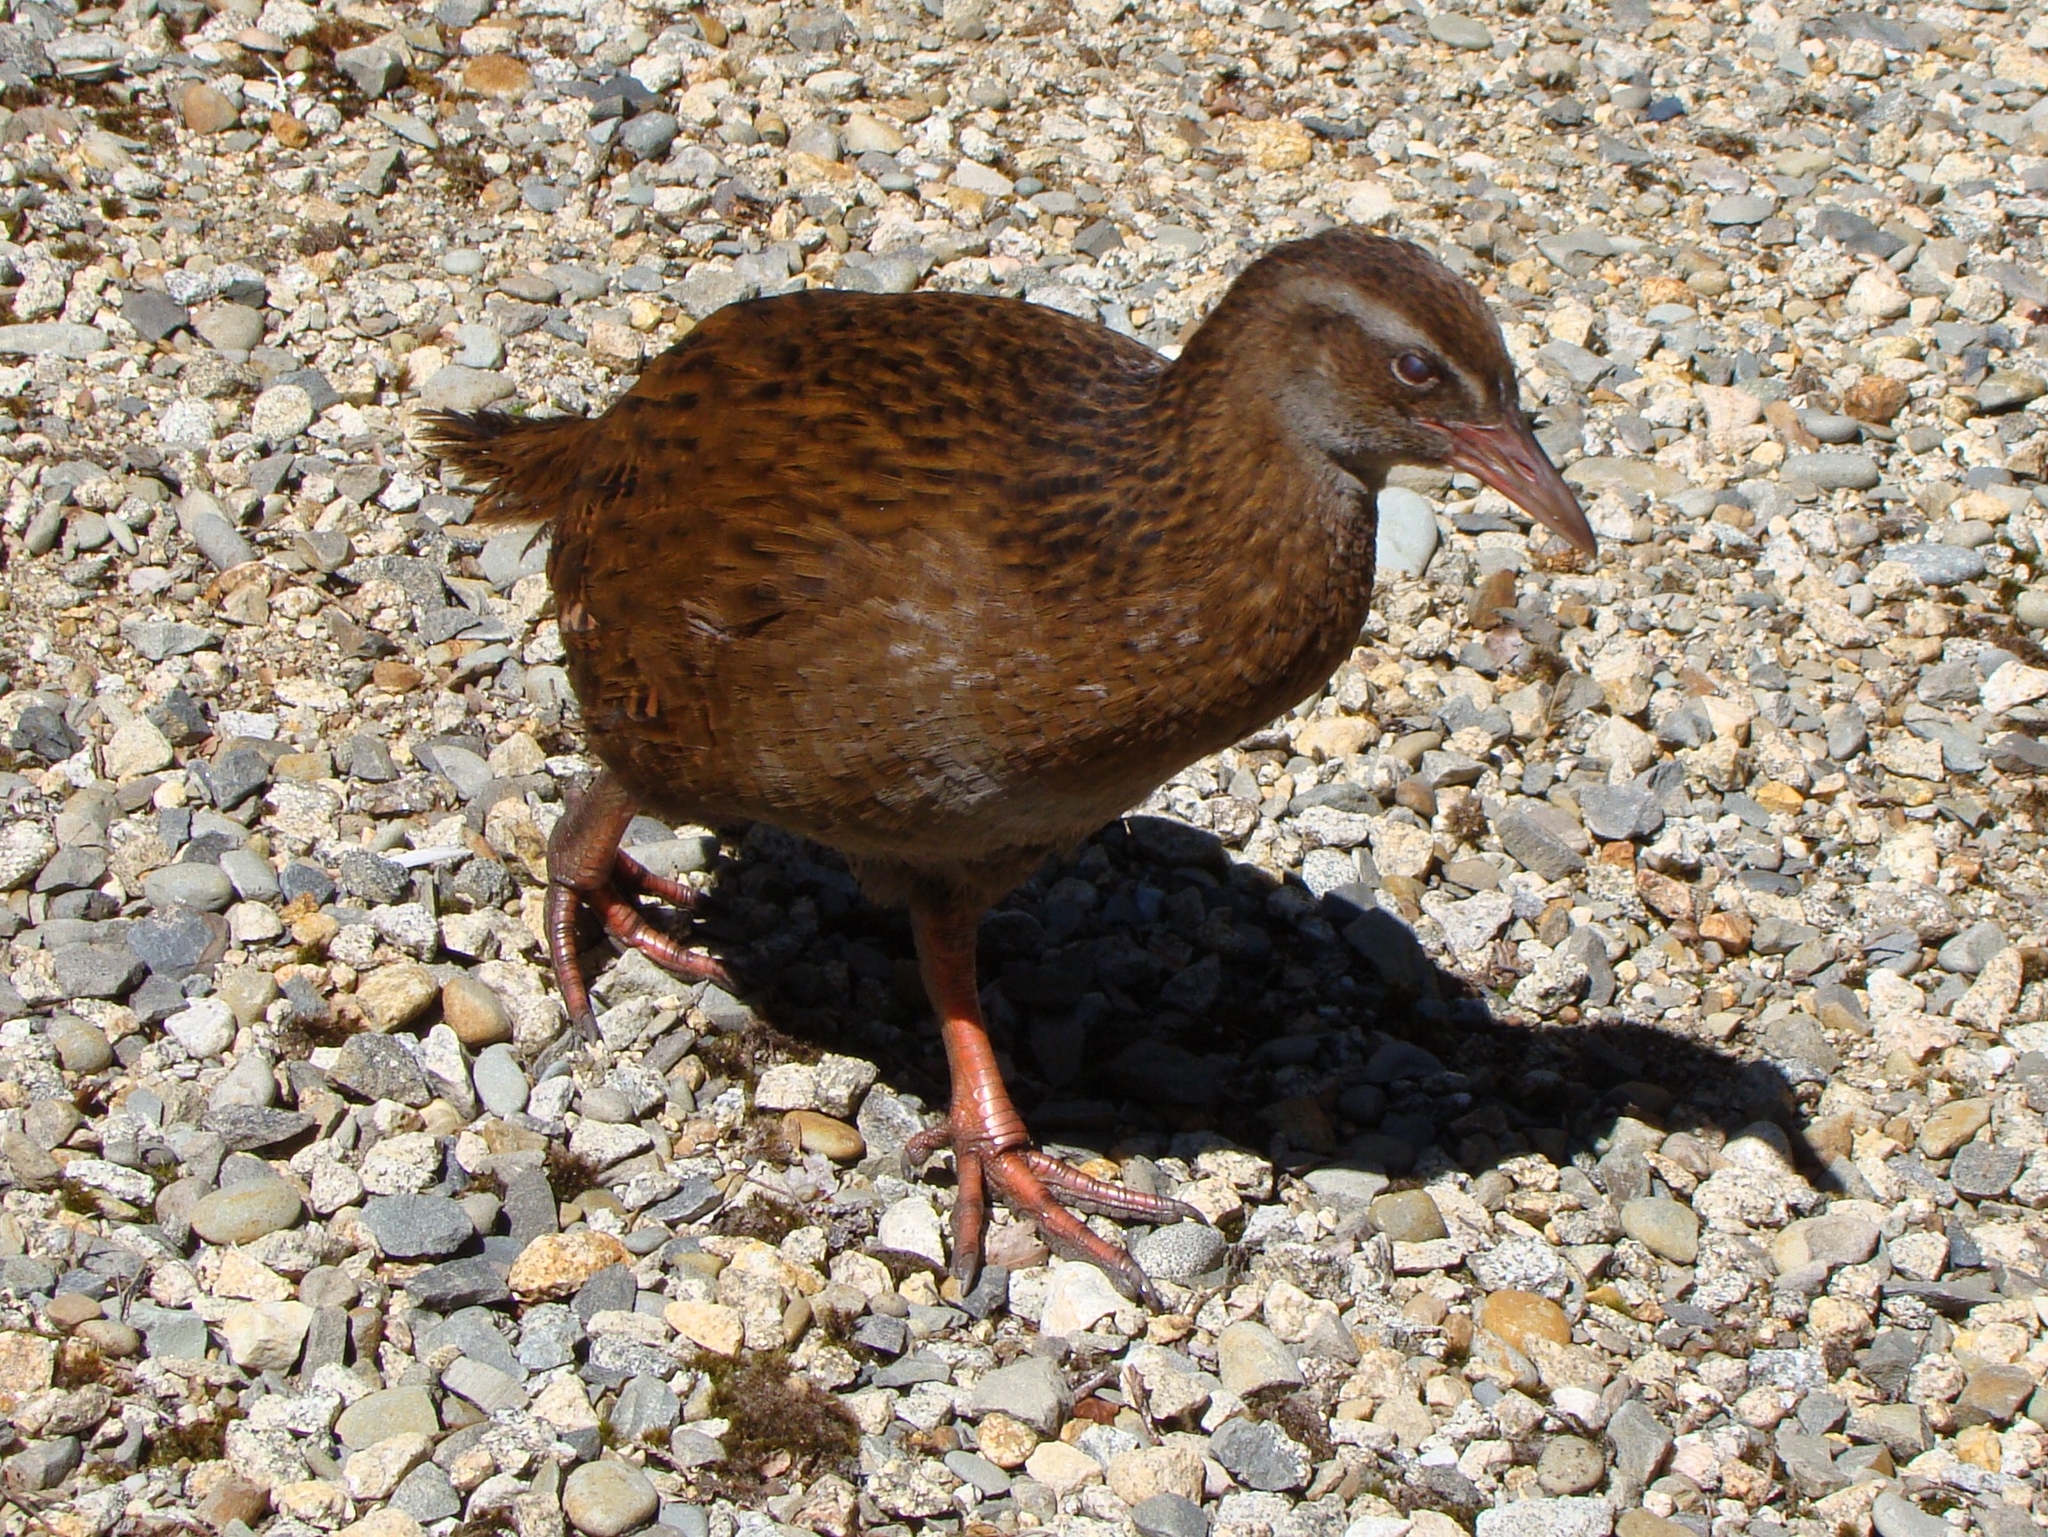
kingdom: Animalia
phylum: Chordata
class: Aves
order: Gruiformes
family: Rallidae
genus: Gallirallus
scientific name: Gallirallus australis
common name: Weka
